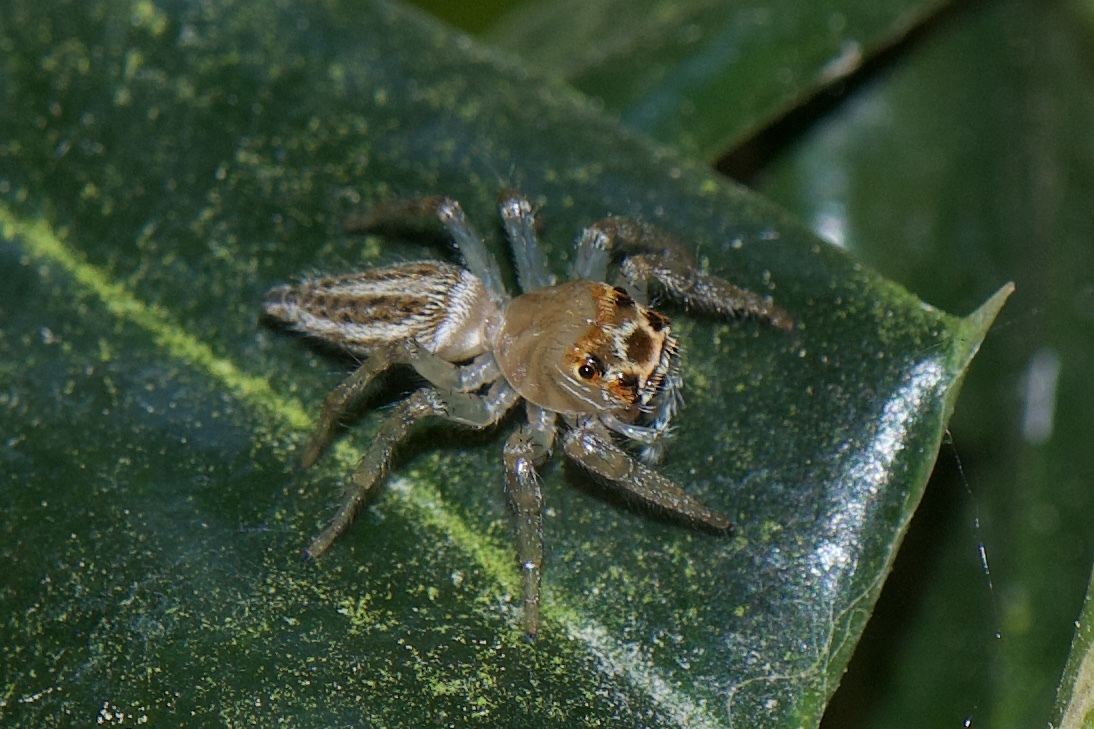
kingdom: Animalia
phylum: Arthropoda
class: Arachnida
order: Araneae
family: Salticidae
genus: Colonus
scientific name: Colonus sylvanus
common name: Jumping spiders
